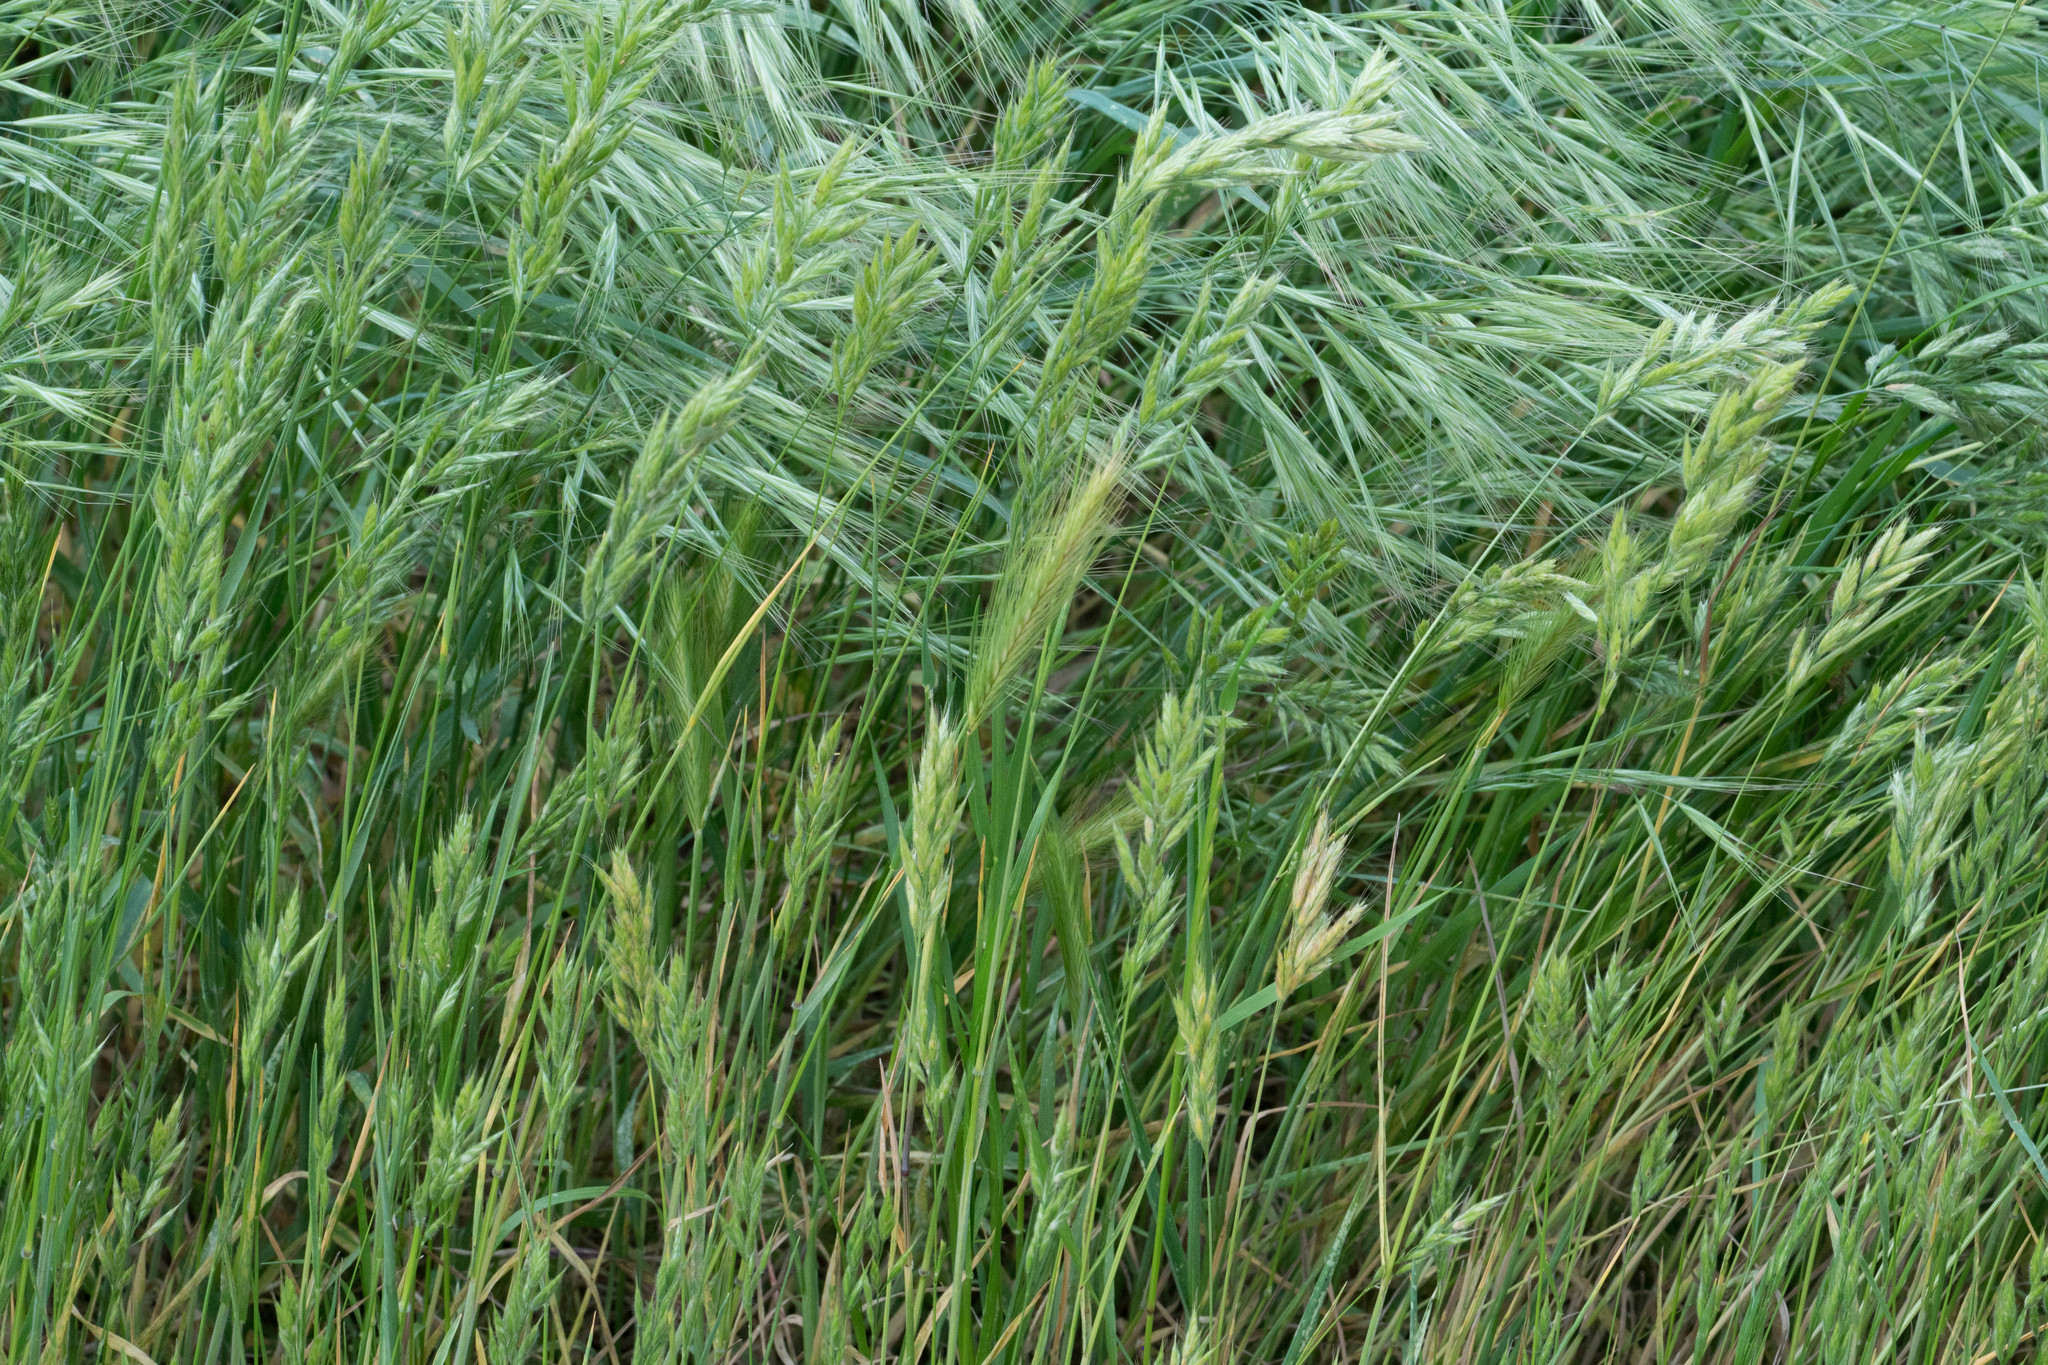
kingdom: Plantae
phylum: Tracheophyta
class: Liliopsida
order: Poales
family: Poaceae
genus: Bromus
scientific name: Bromus hordeaceus
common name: Soft brome
